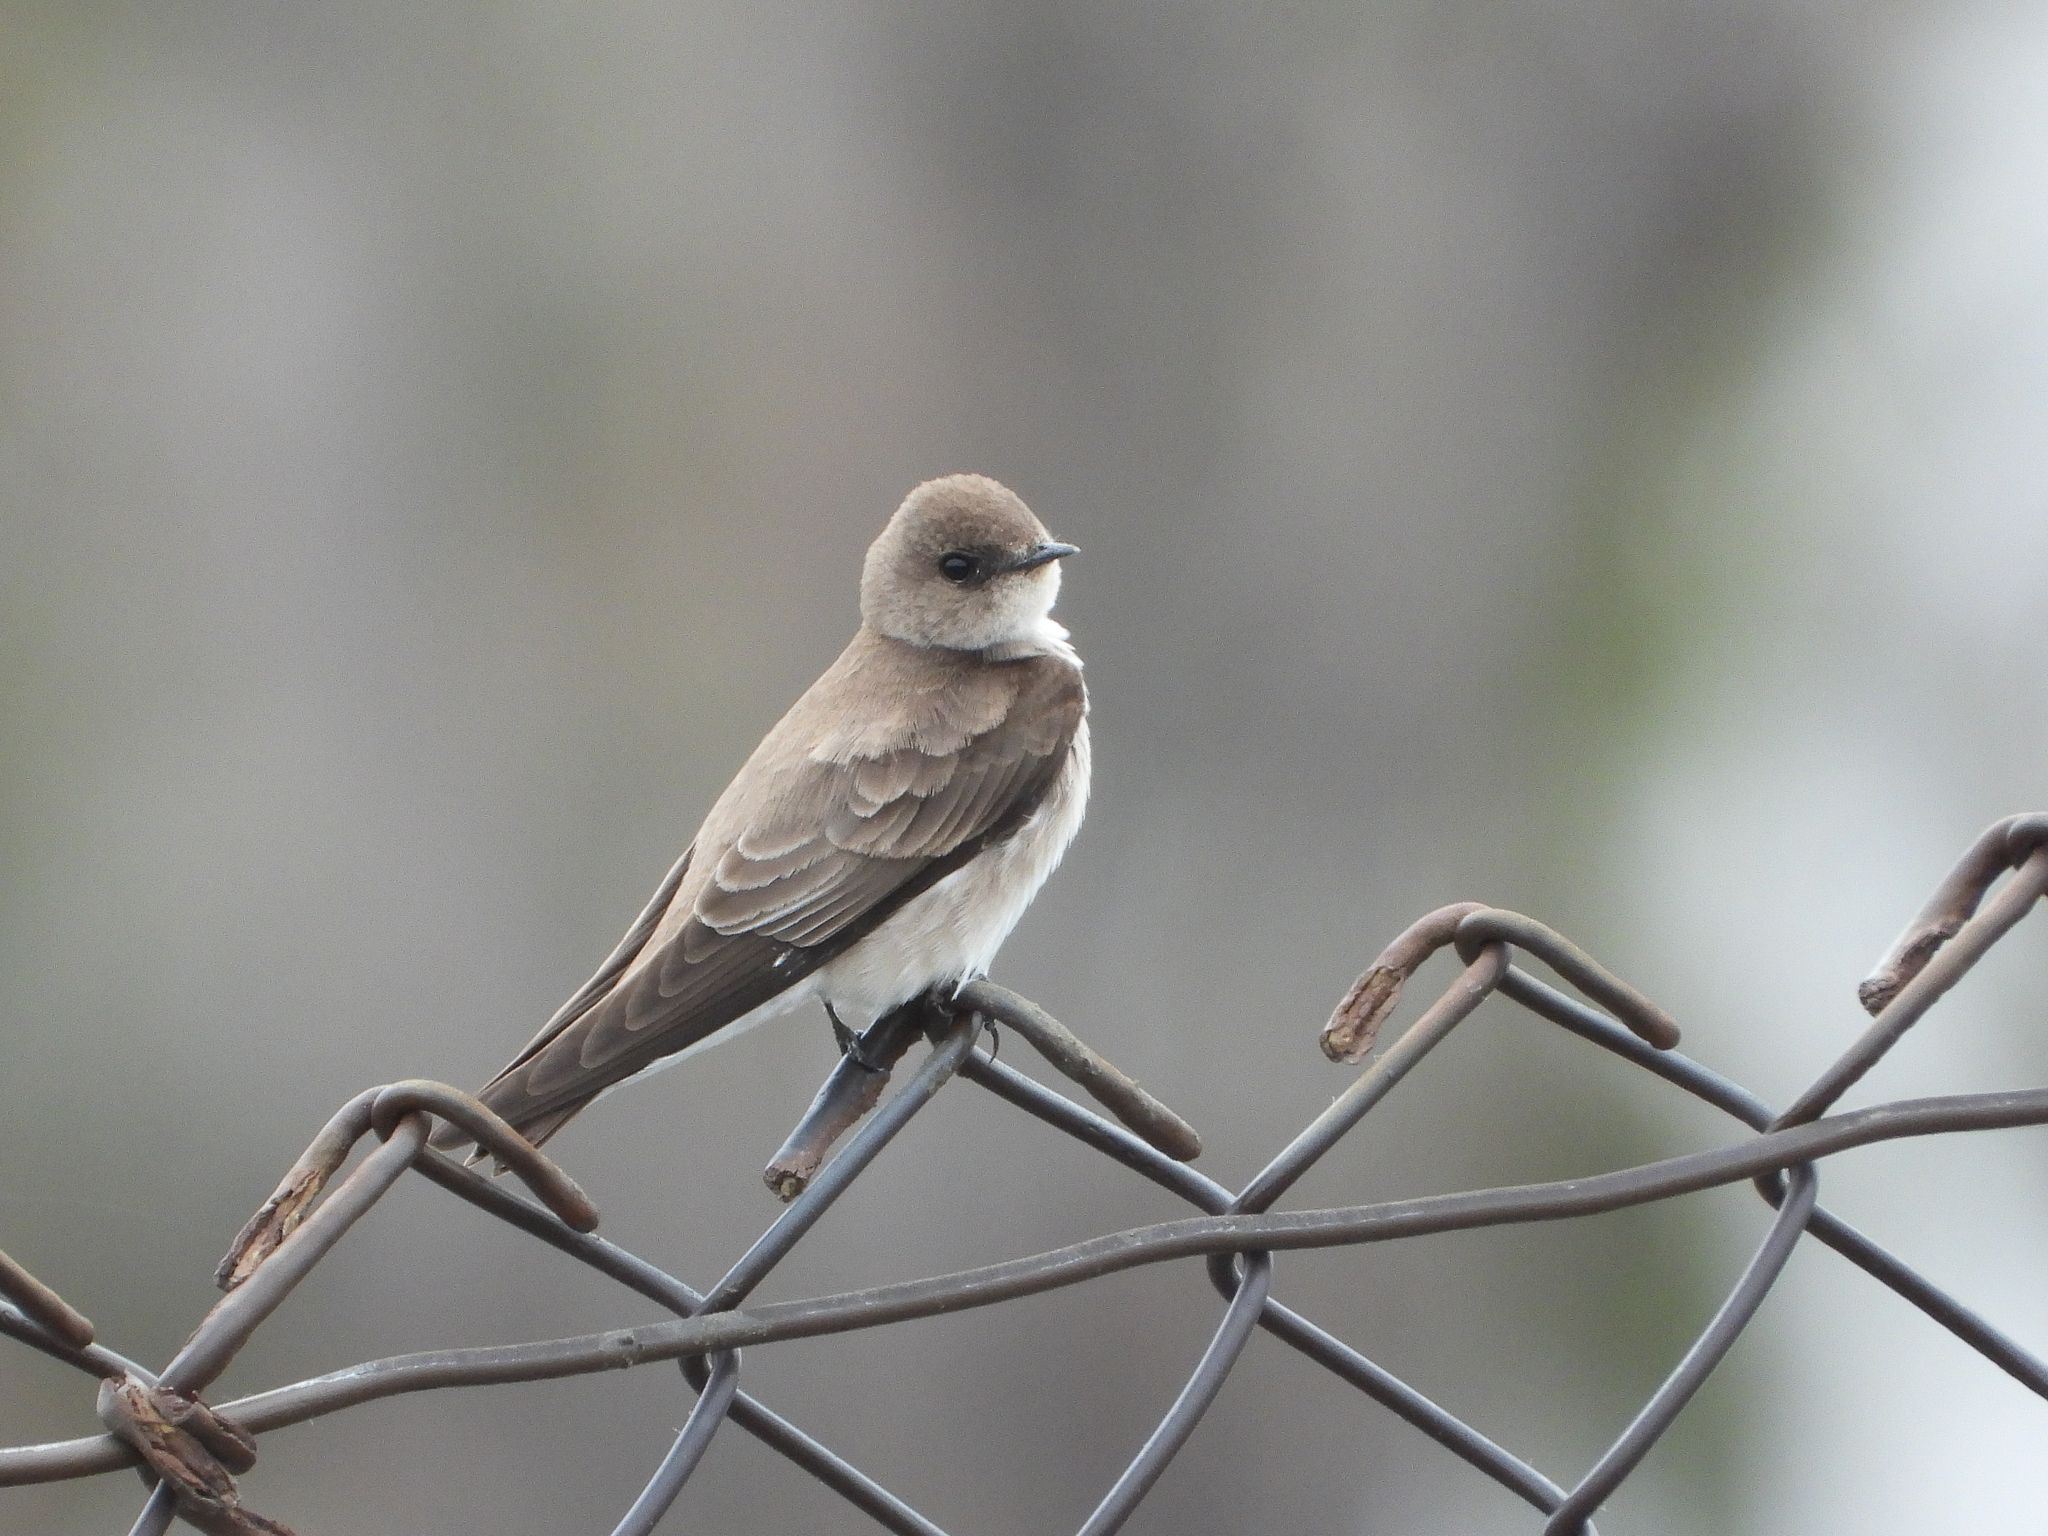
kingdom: Animalia
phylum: Chordata
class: Aves
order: Passeriformes
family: Hirundinidae
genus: Stelgidopteryx
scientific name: Stelgidopteryx serripennis
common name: Northern rough-winged swallow
